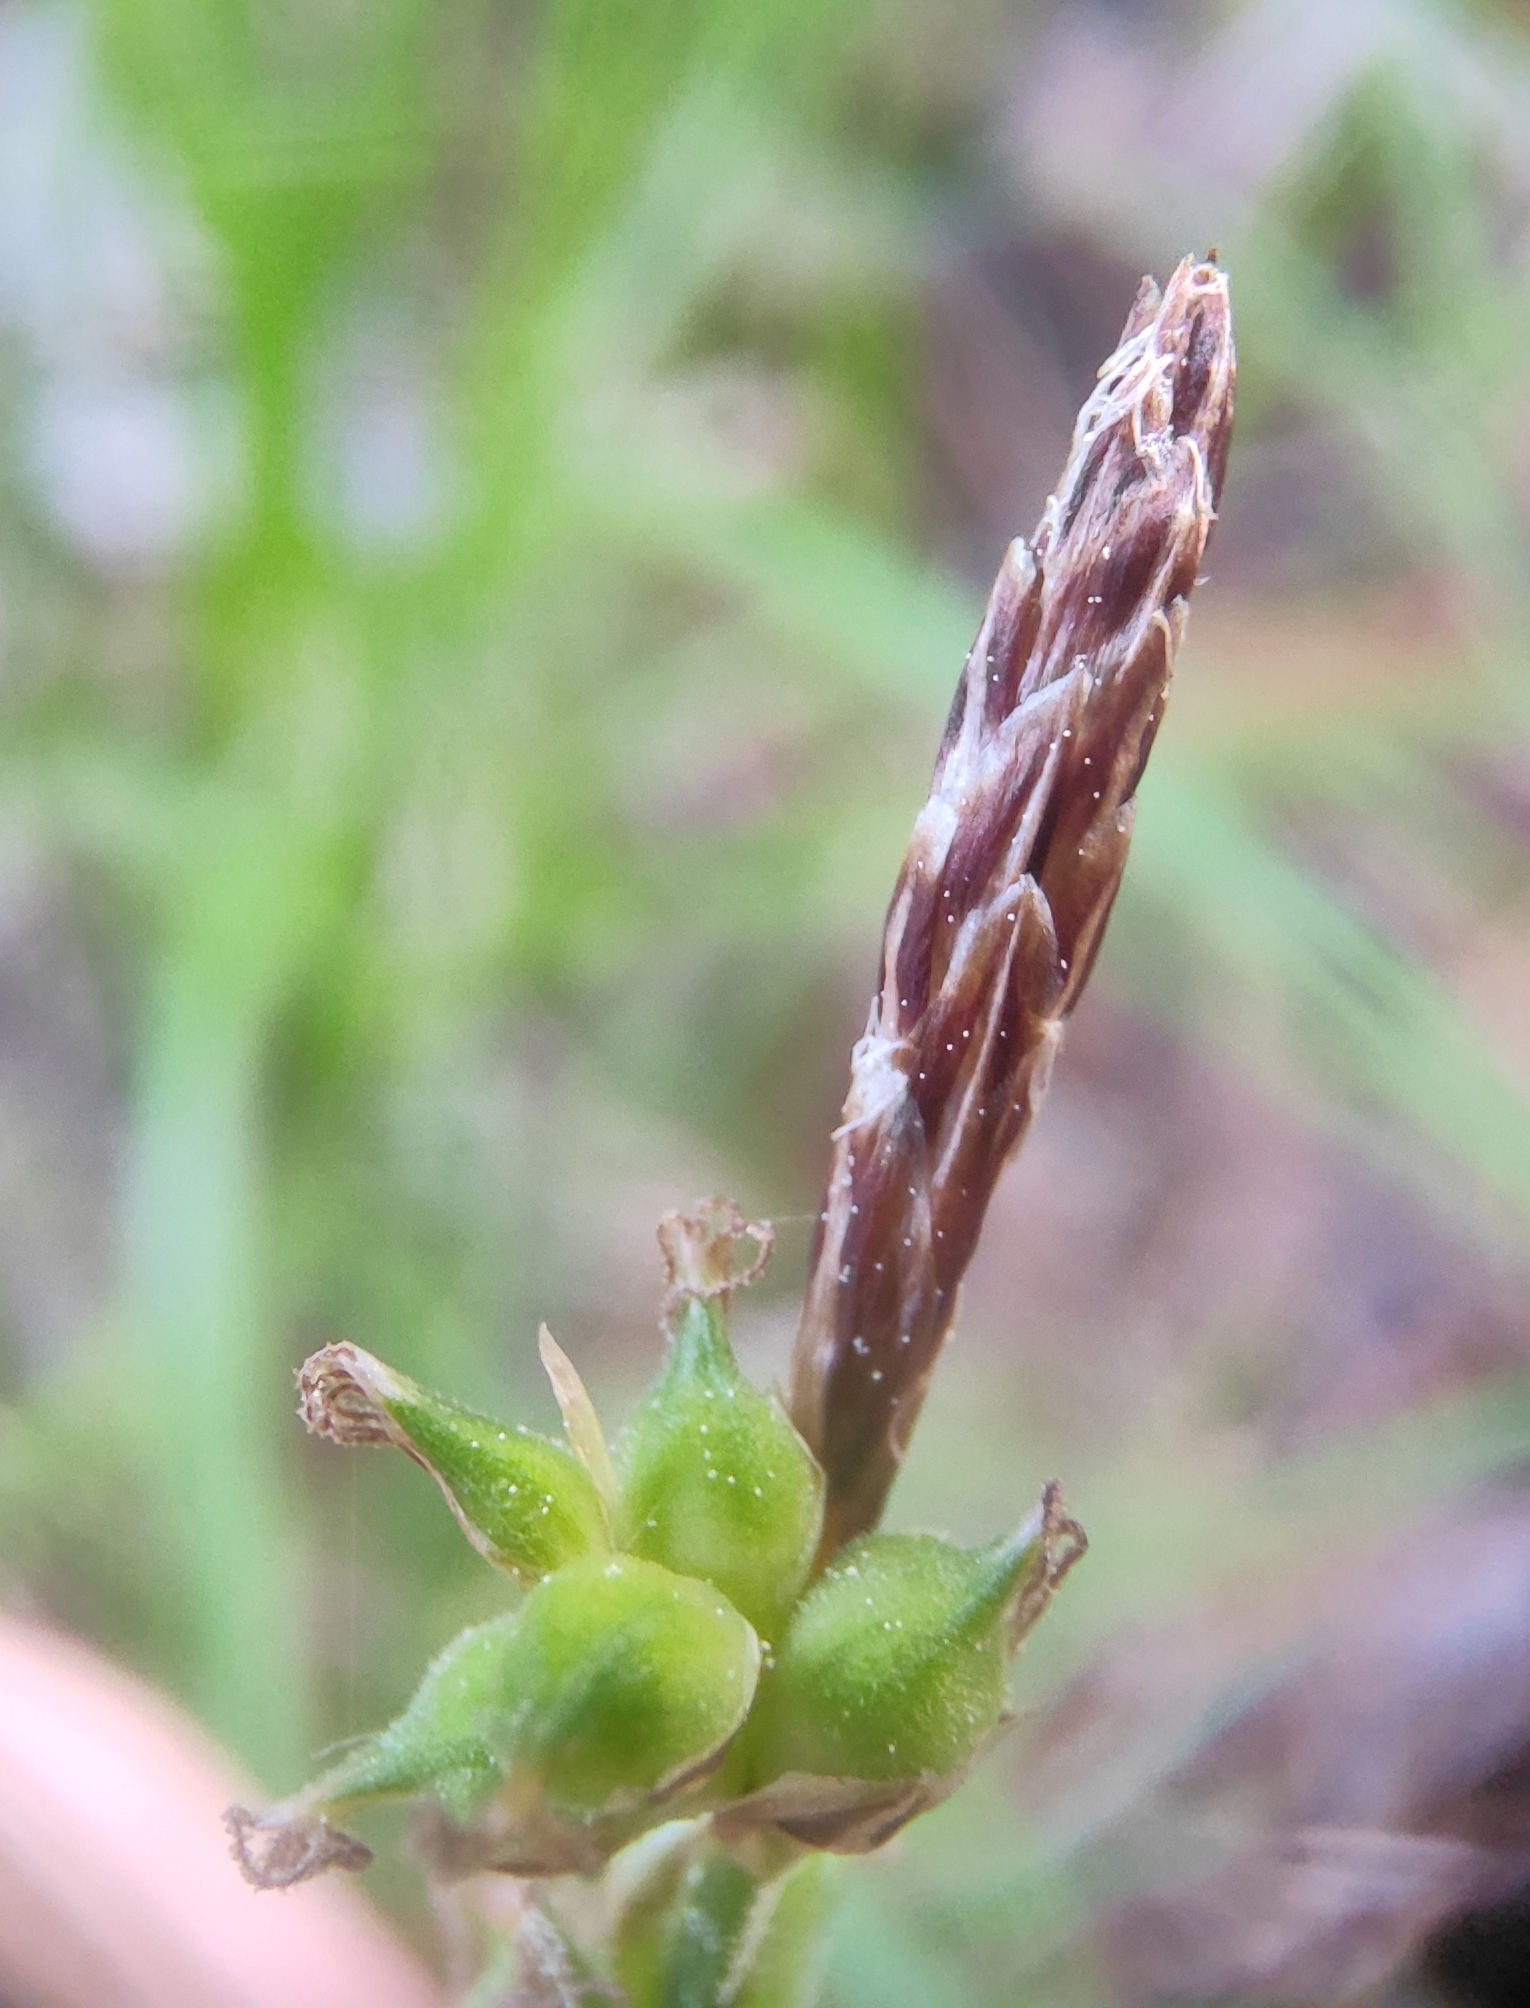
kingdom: Plantae
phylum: Tracheophyta
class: Liliopsida
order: Poales
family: Cyperaceae
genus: Carex
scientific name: Carex globularis
